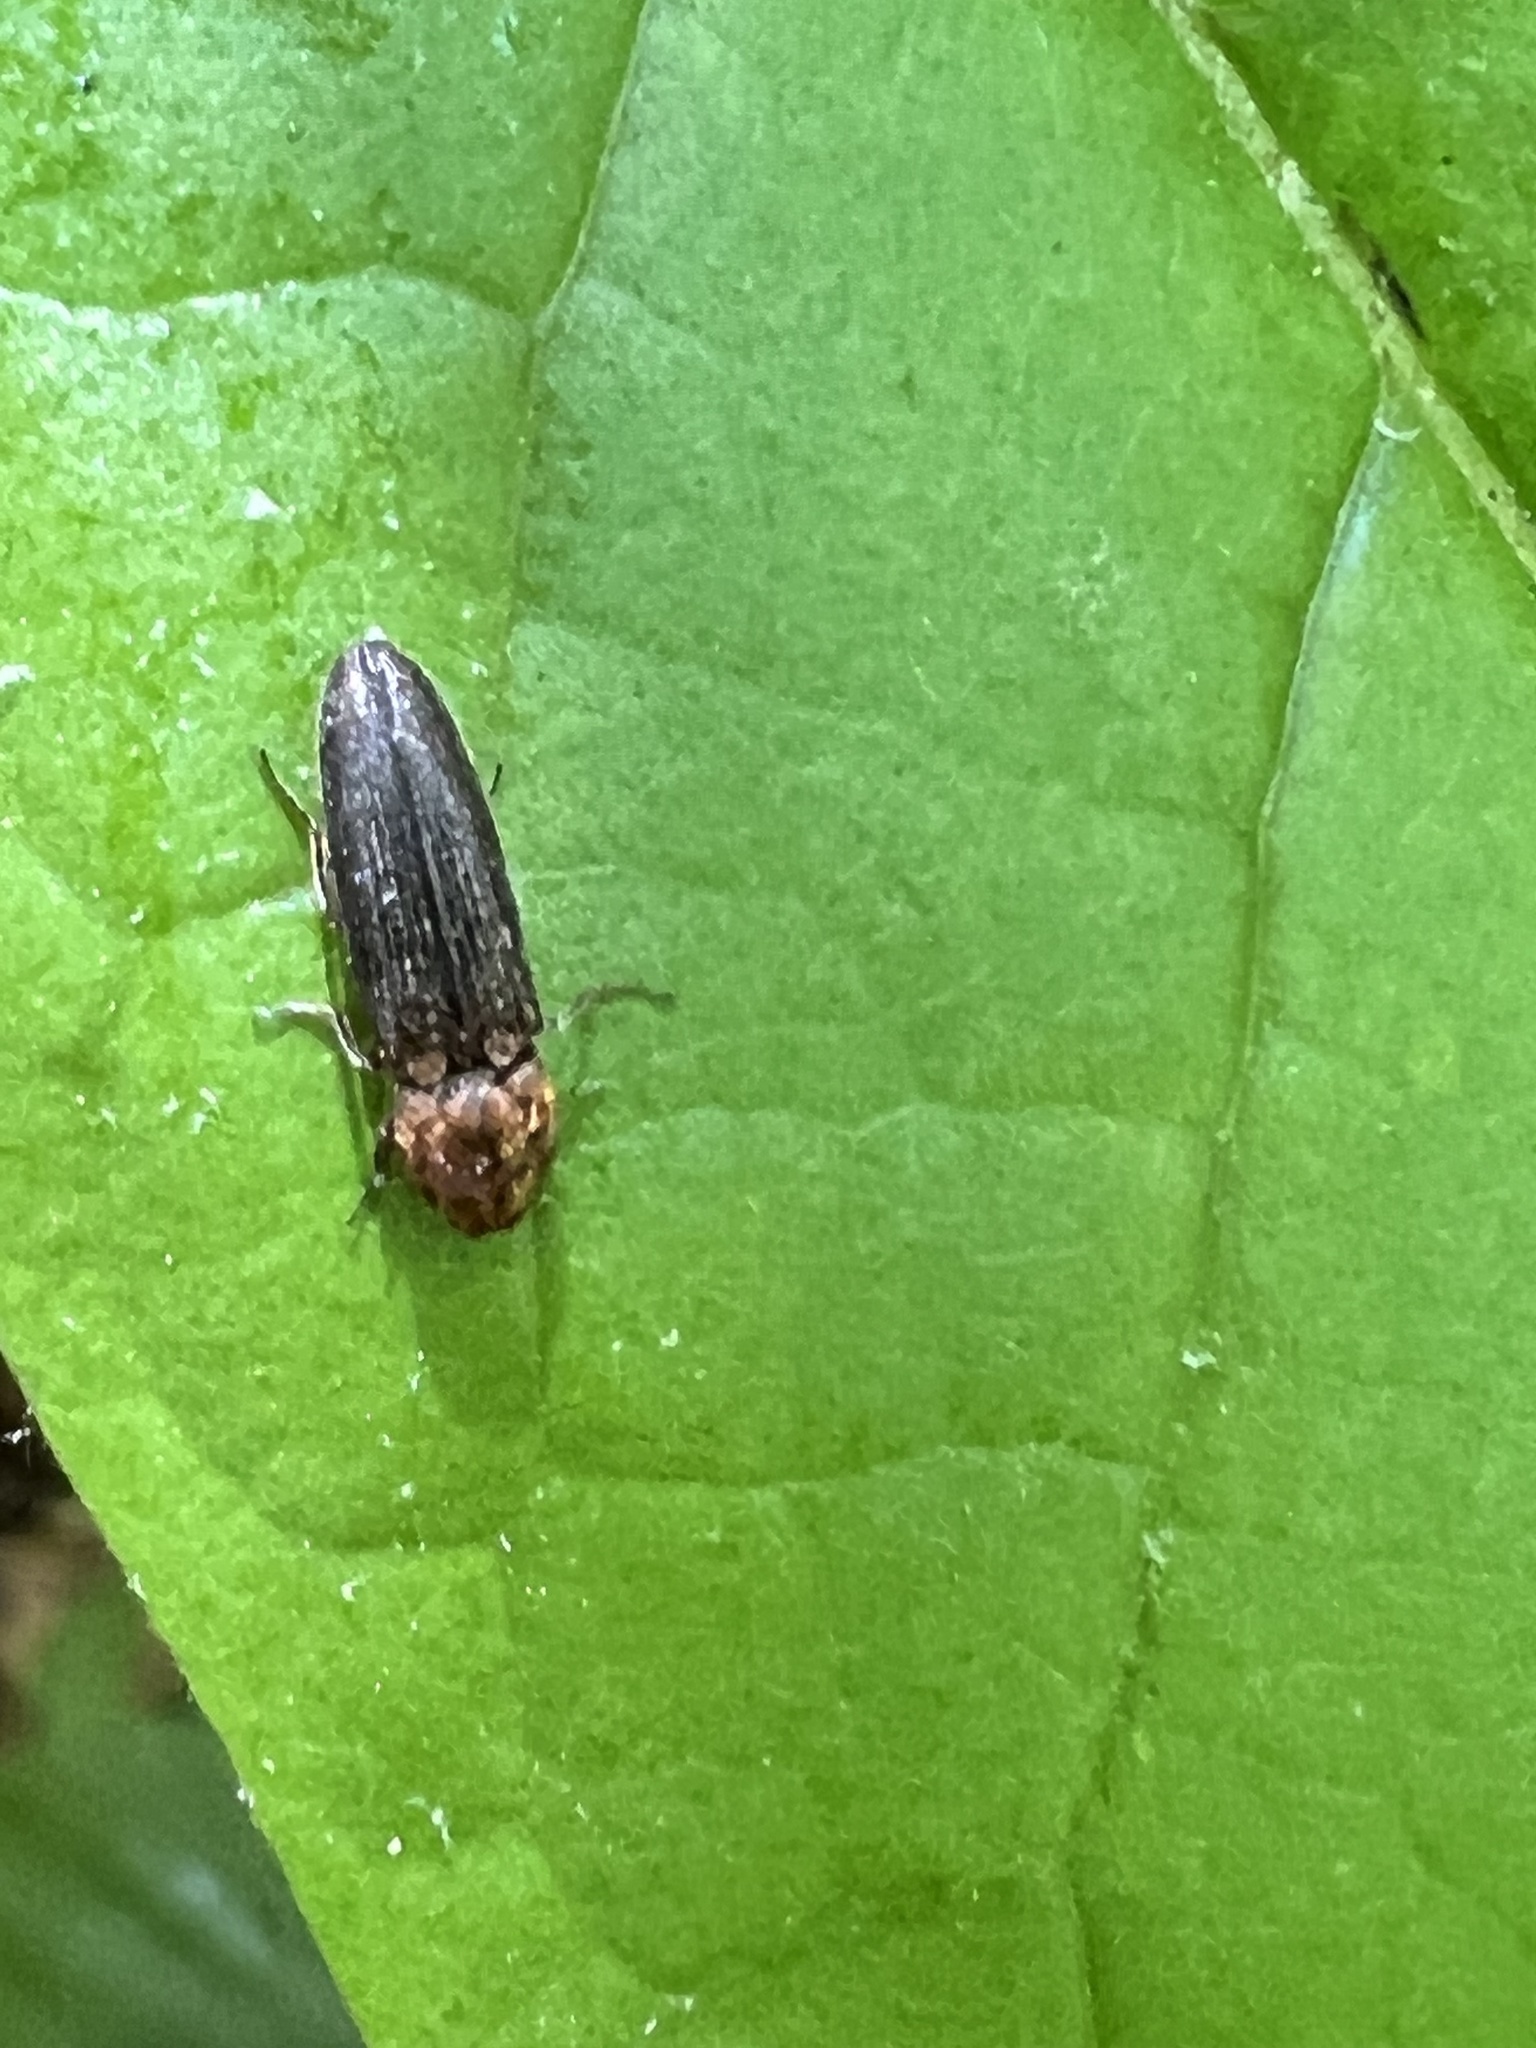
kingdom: Animalia
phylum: Arthropoda
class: Insecta
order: Coleoptera
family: Elateridae
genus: Limonius
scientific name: Limonius auripilis
